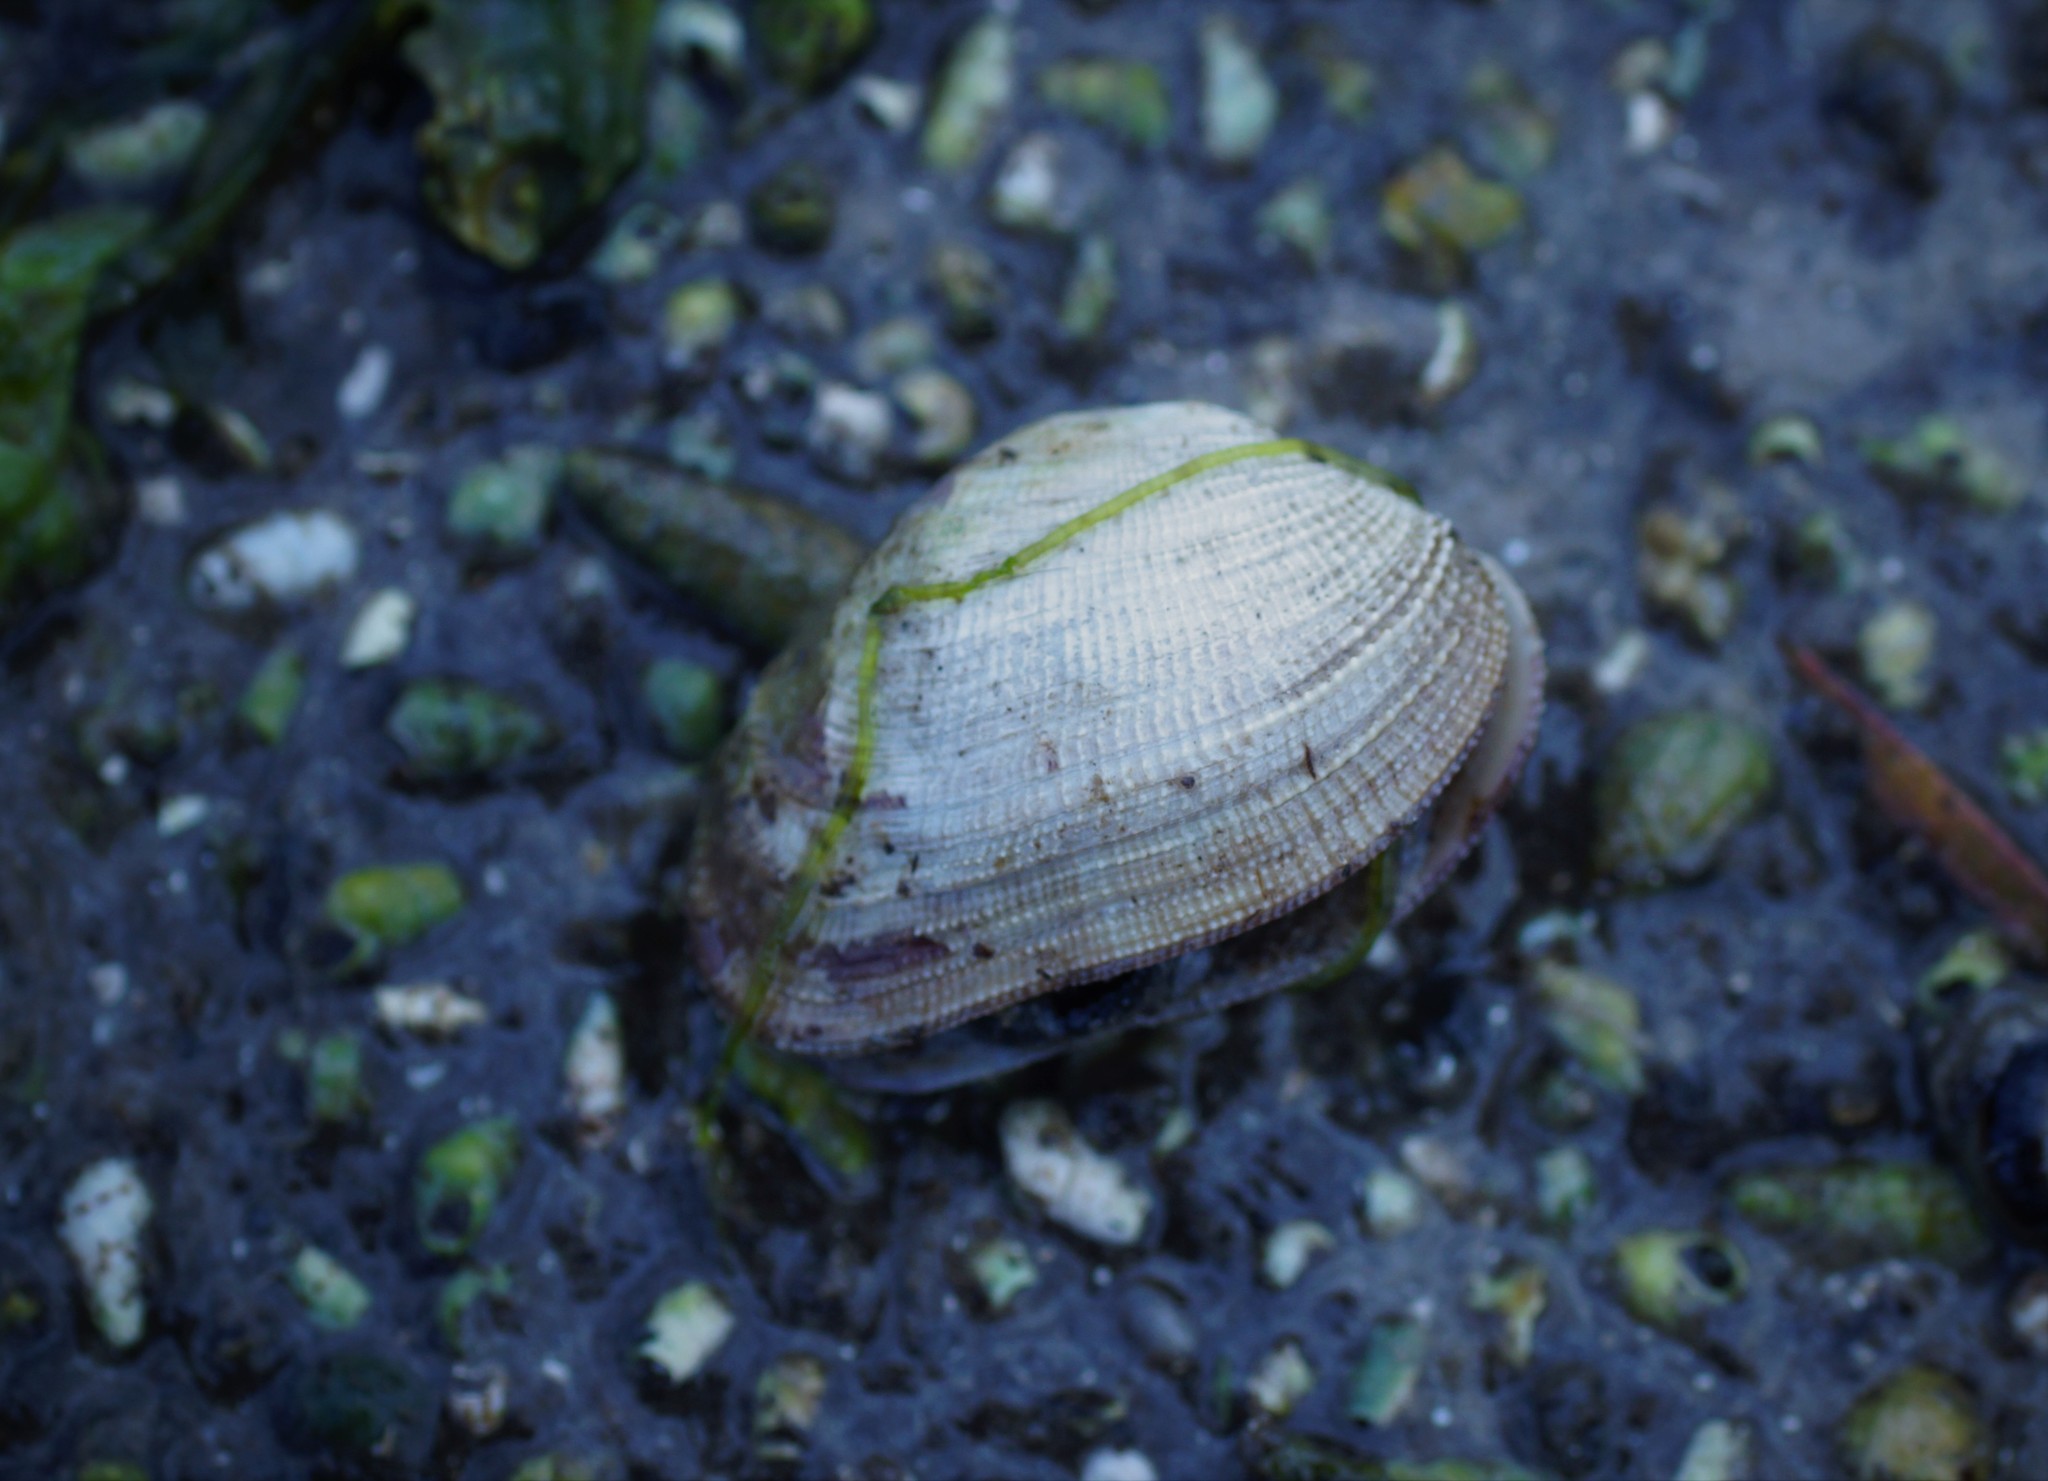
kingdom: Animalia
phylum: Mollusca
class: Bivalvia
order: Venerida
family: Veneridae
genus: Irus
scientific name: Irus crenatus
